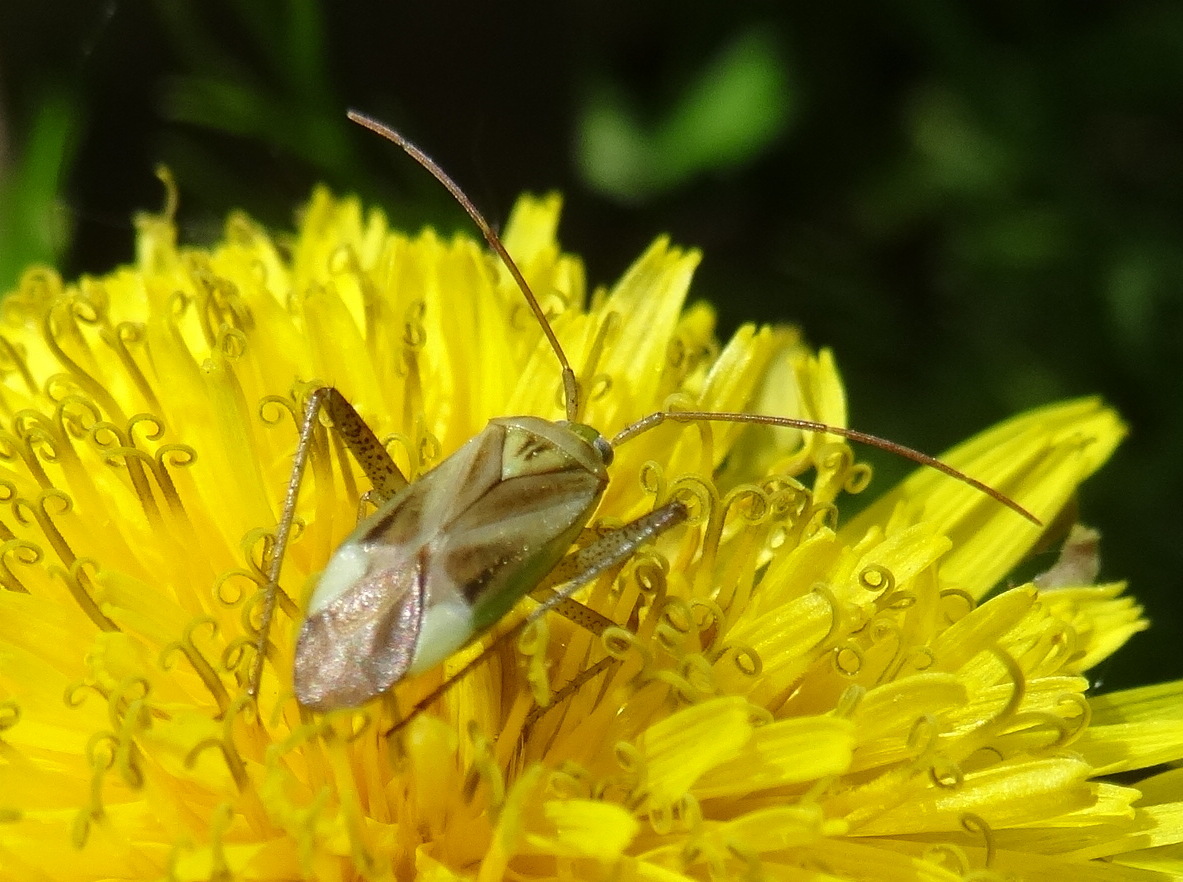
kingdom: Animalia
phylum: Arthropoda
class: Insecta
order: Hemiptera
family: Miridae
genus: Adelphocoris
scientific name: Adelphocoris lineolatus
